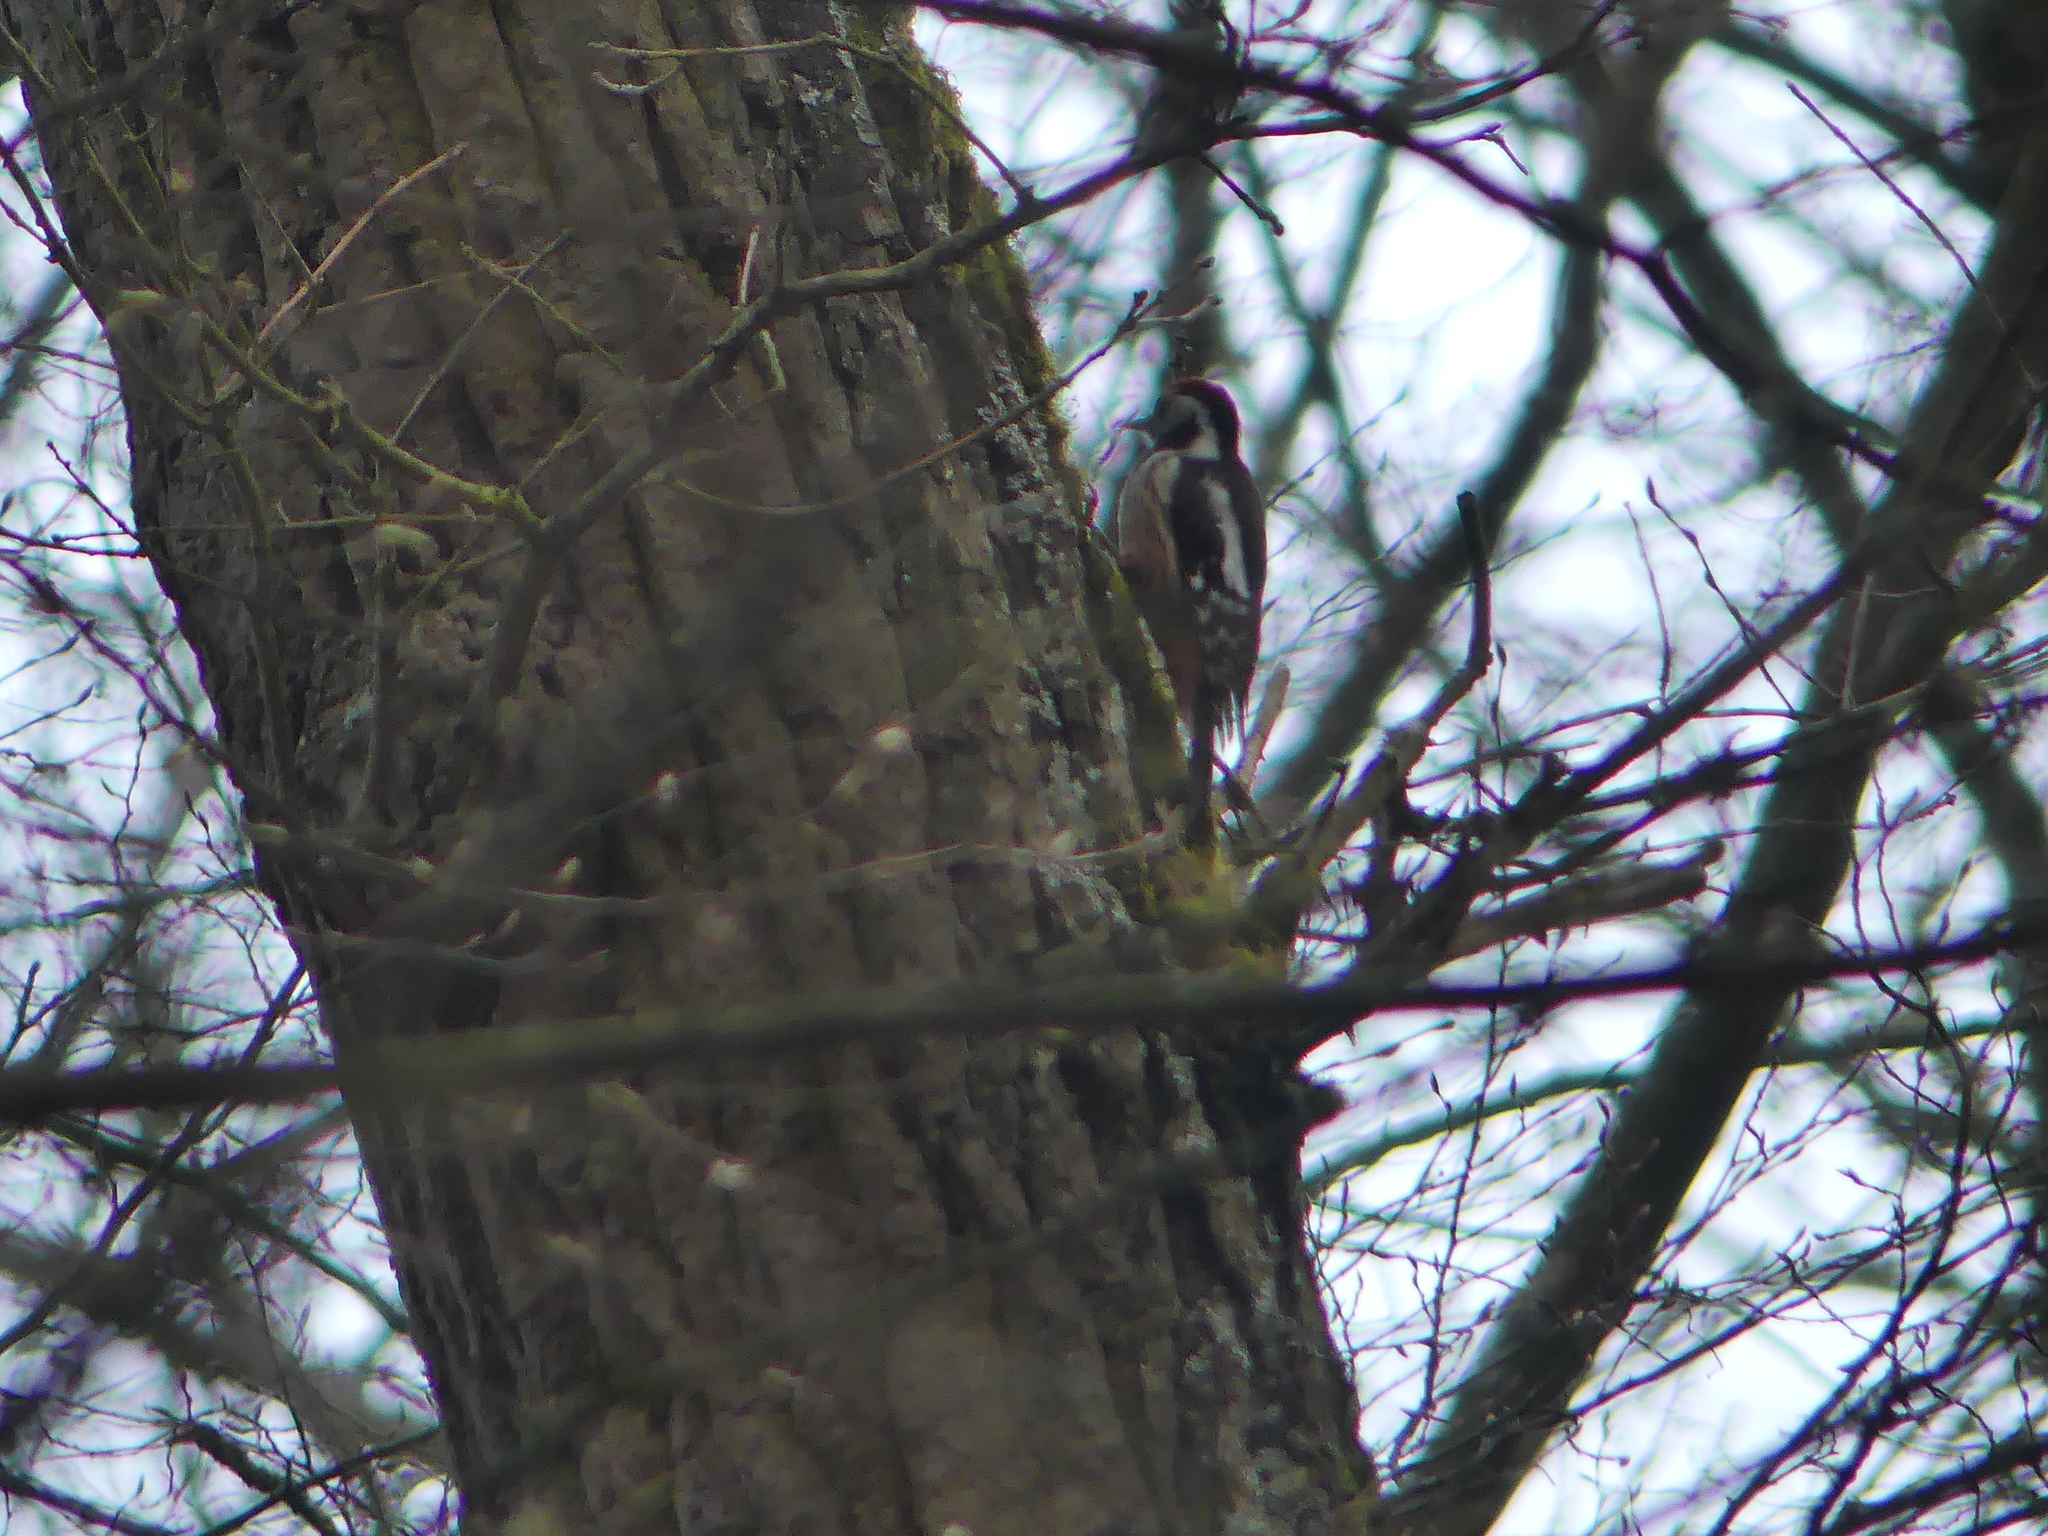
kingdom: Animalia
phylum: Chordata
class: Aves
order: Piciformes
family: Picidae
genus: Dendrocoptes
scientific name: Dendrocoptes medius
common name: Middle spotted woodpecker
